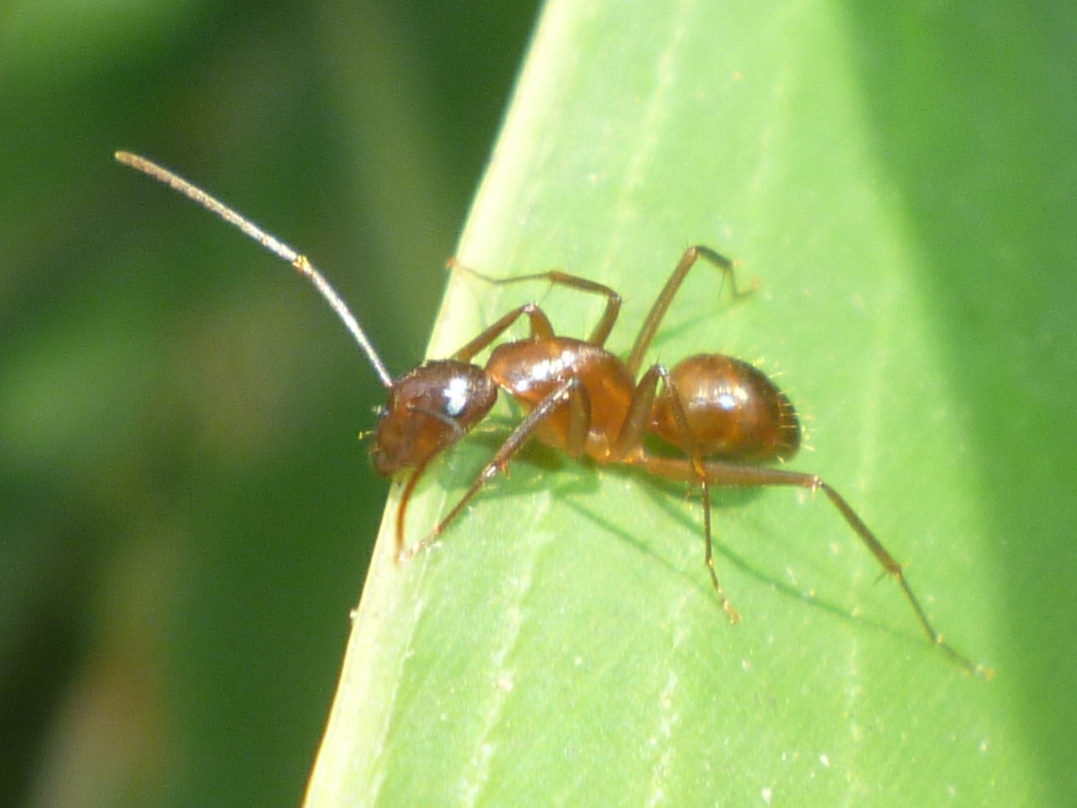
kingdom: Animalia
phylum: Arthropoda
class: Insecta
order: Hymenoptera
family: Formicidae
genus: Camponotus
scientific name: Camponotus castaneus
